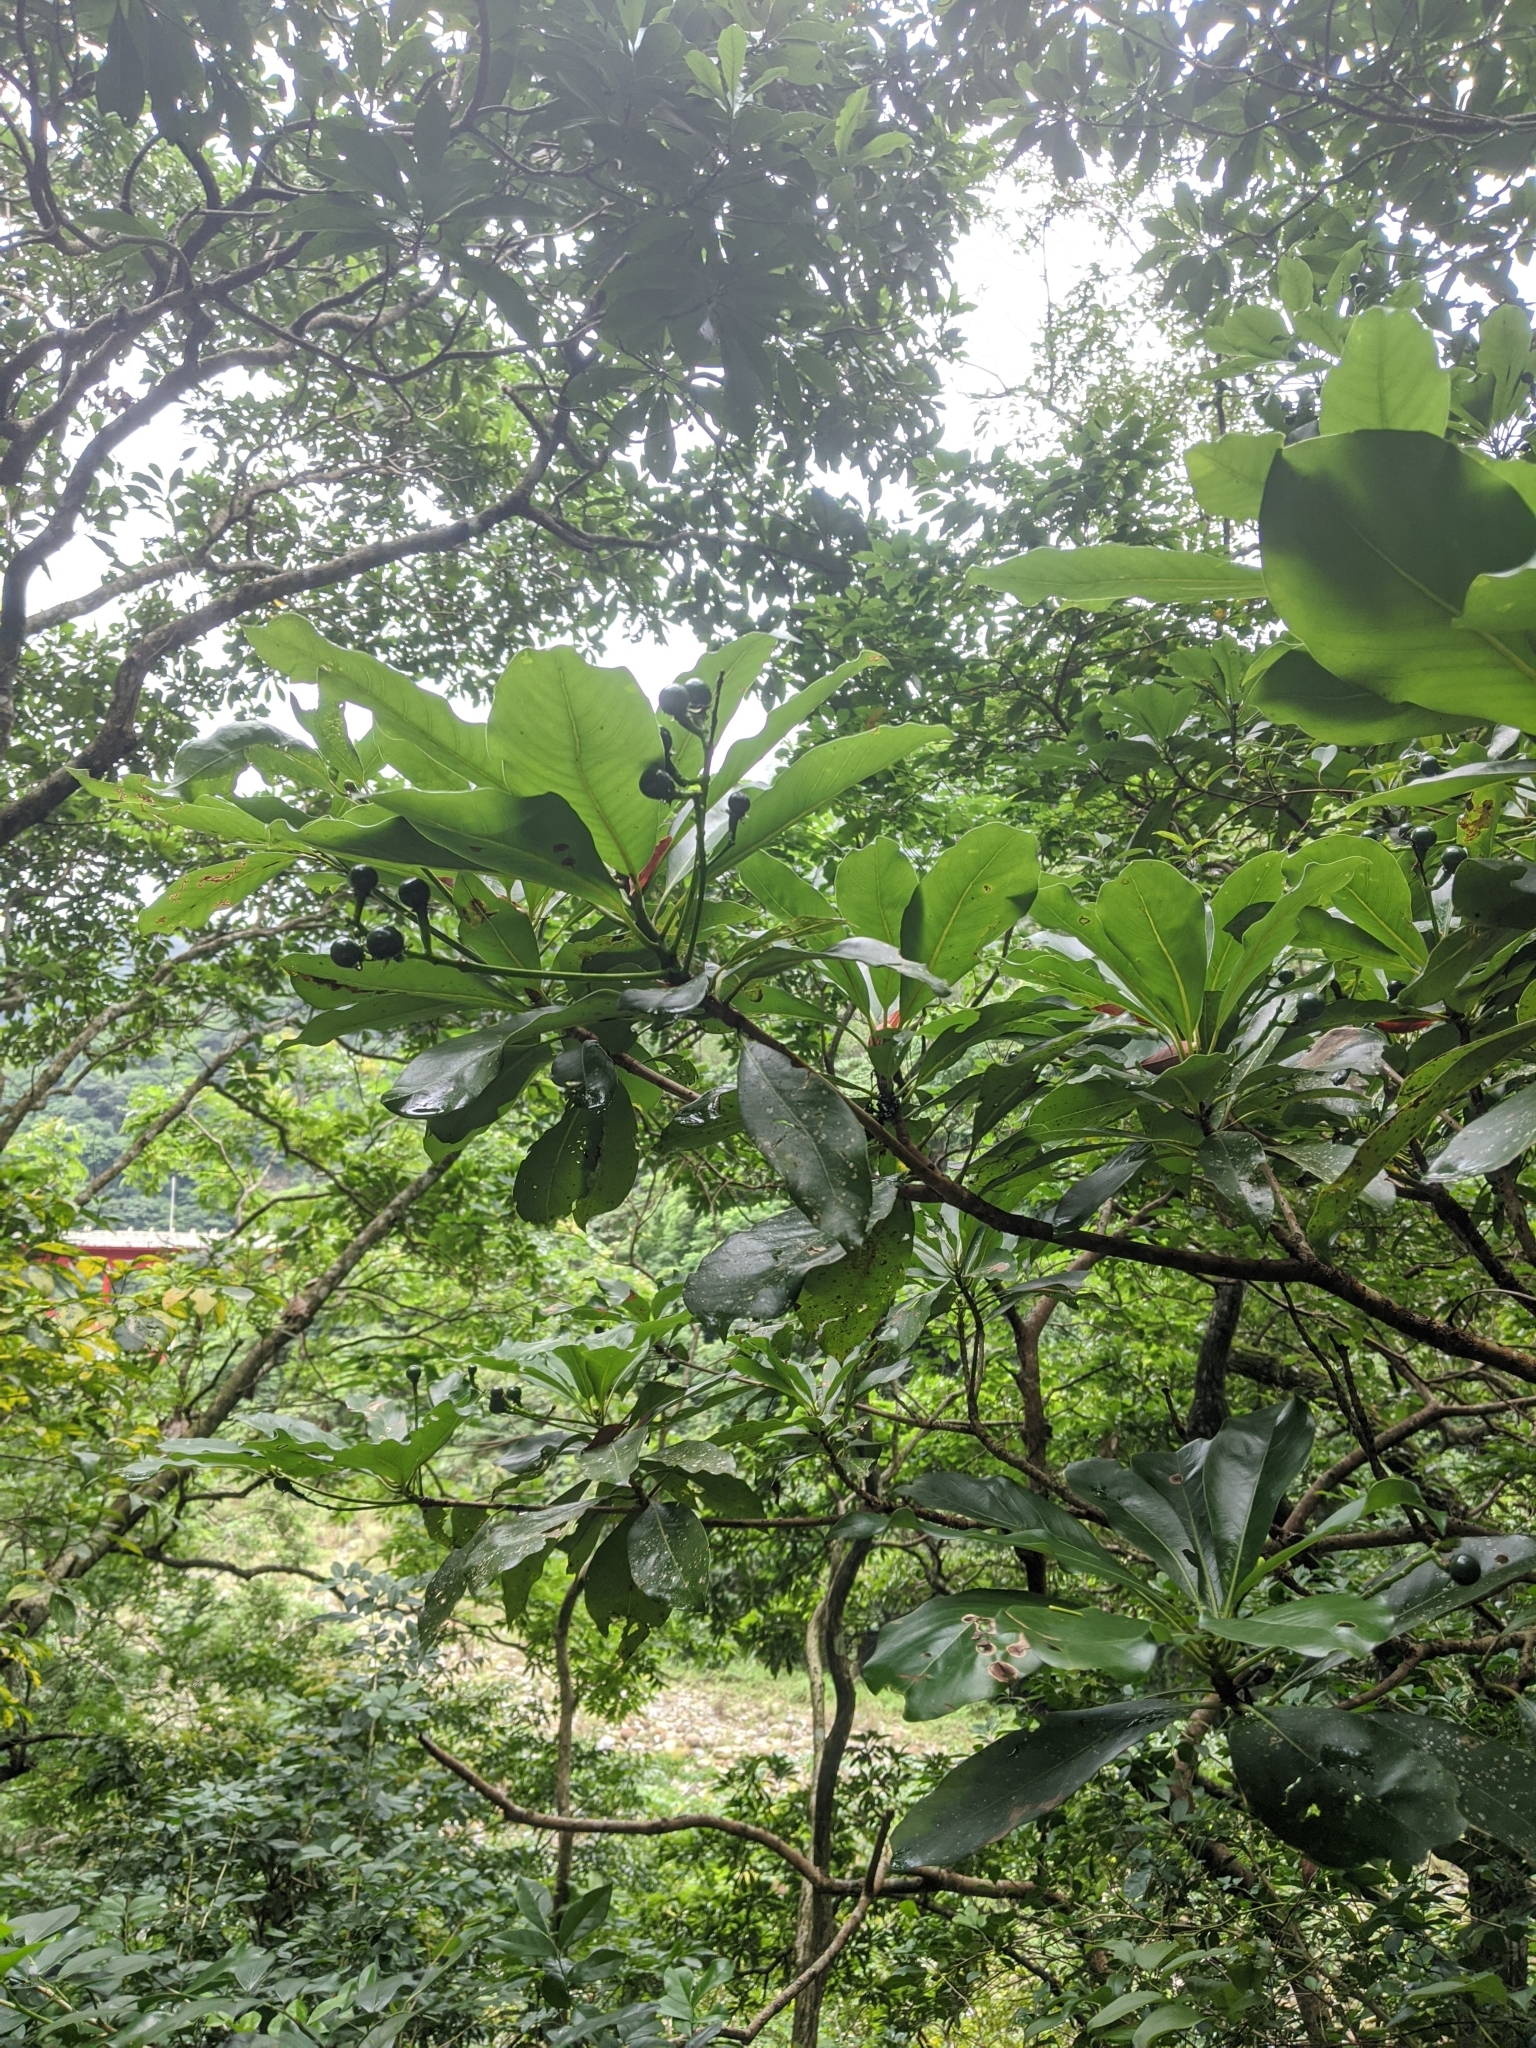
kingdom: Plantae
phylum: Tracheophyta
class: Magnoliopsida
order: Laurales
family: Lauraceae
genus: Machilus
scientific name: Machilus japonica
